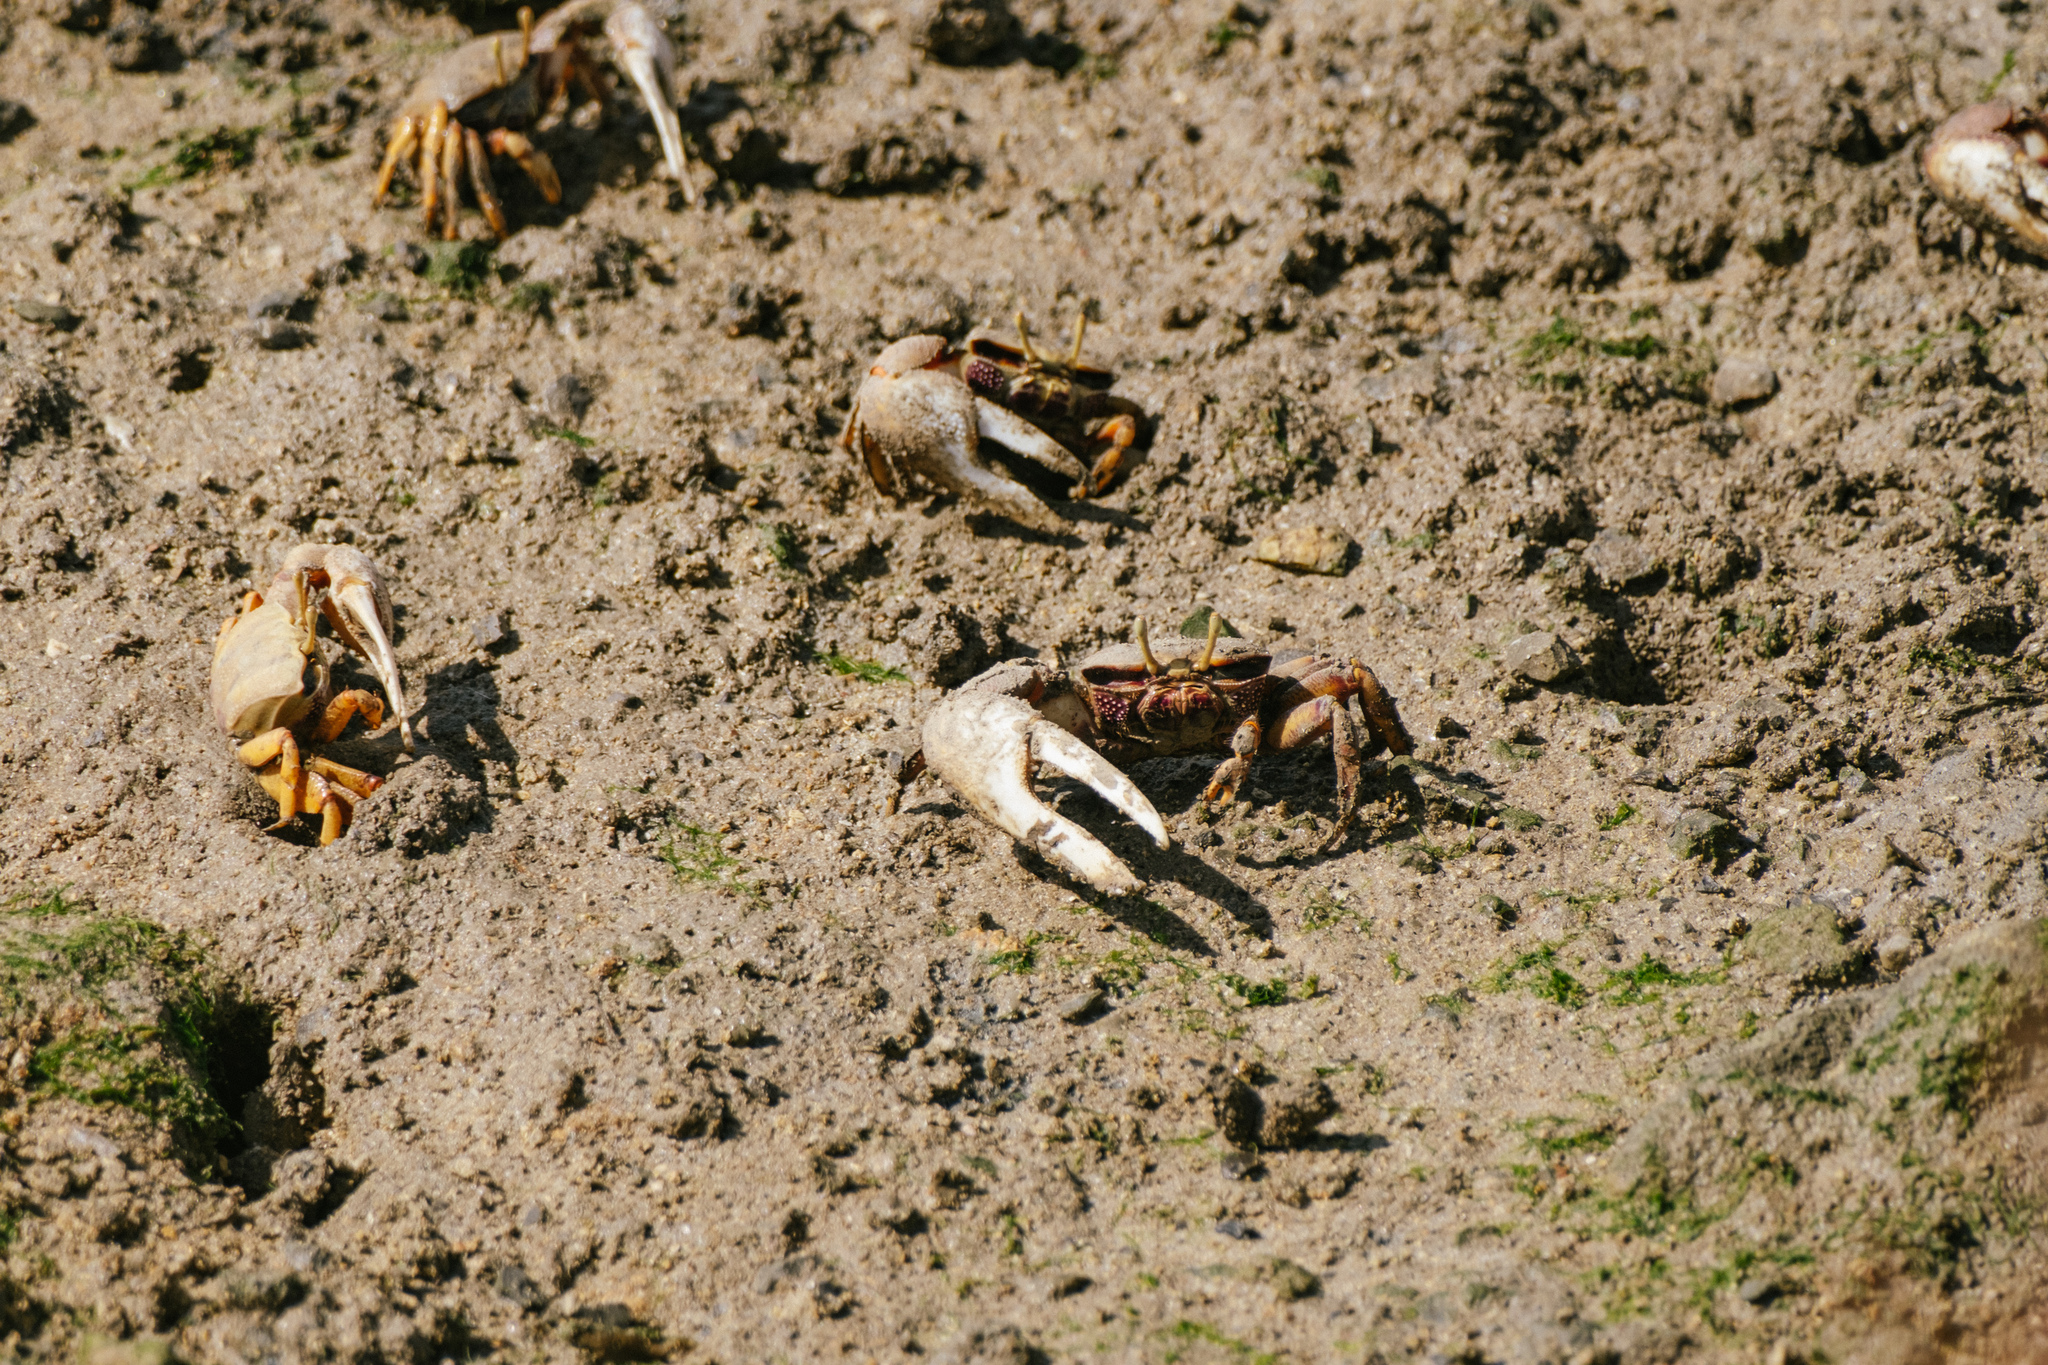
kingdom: Animalia
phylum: Arthropoda
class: Malacostraca
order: Decapoda
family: Ocypodidae
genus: Afruca
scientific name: Afruca tangeri
